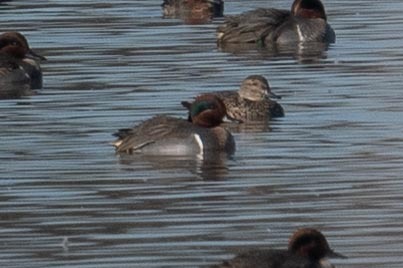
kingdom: Animalia
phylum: Chordata
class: Aves
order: Anseriformes
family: Anatidae
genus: Anas
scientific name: Anas crecca
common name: Eurasian teal
